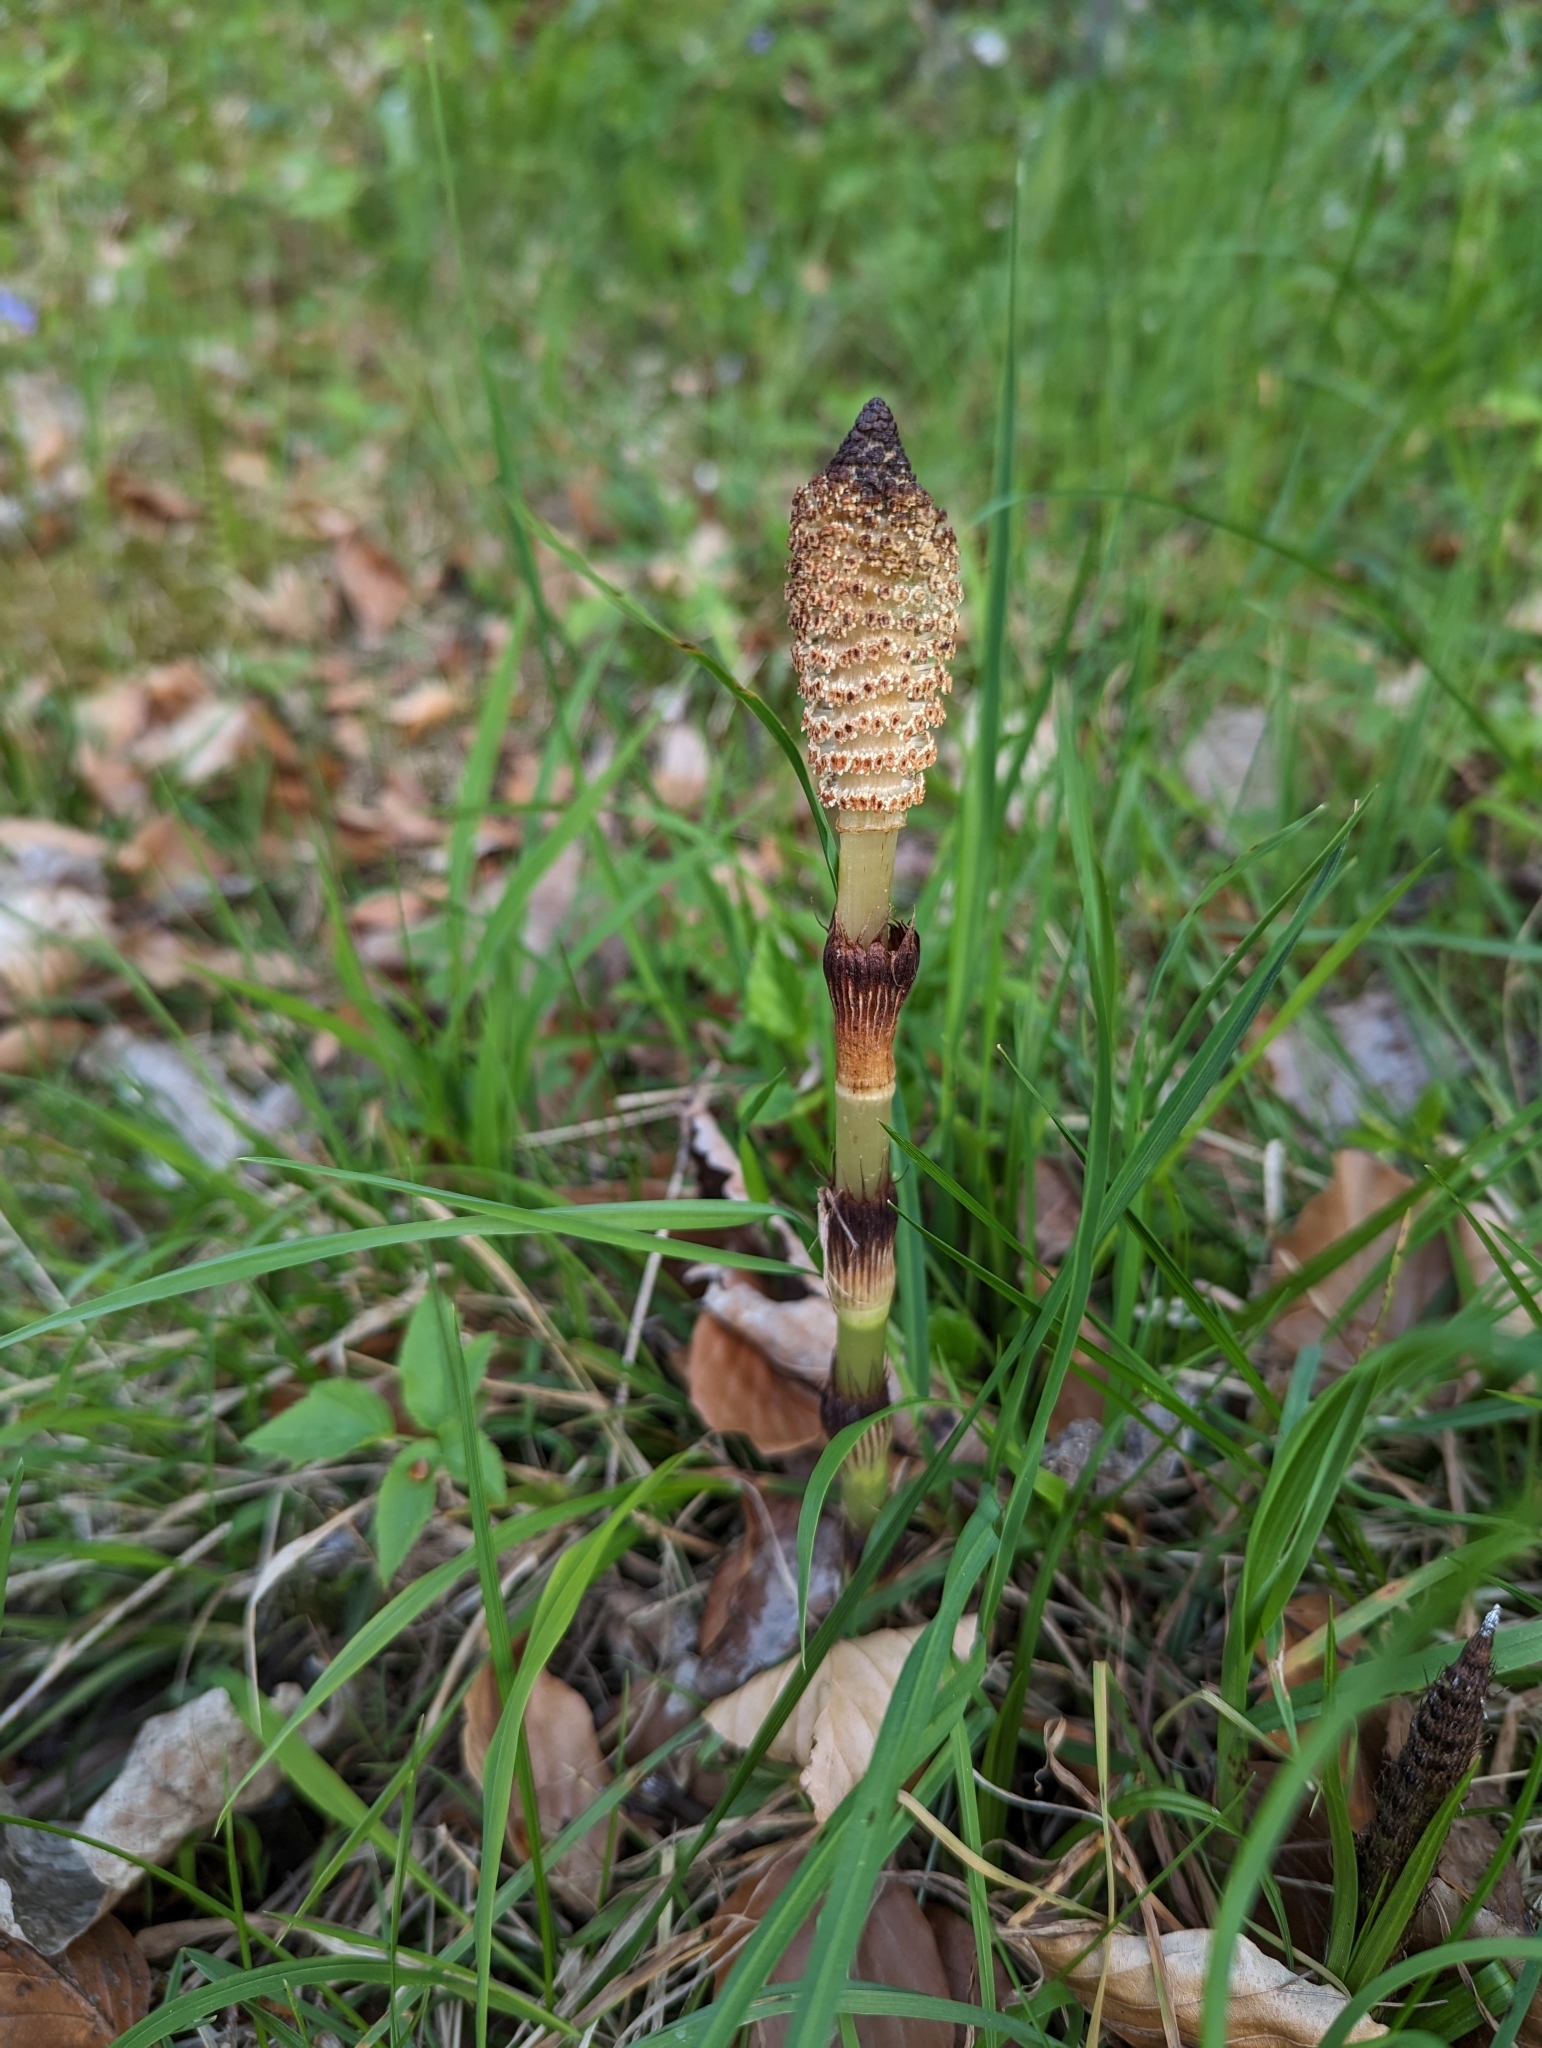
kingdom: Plantae
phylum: Tracheophyta
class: Polypodiopsida
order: Equisetales
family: Equisetaceae
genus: Equisetum
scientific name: Equisetum telmateia
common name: Great horsetail
